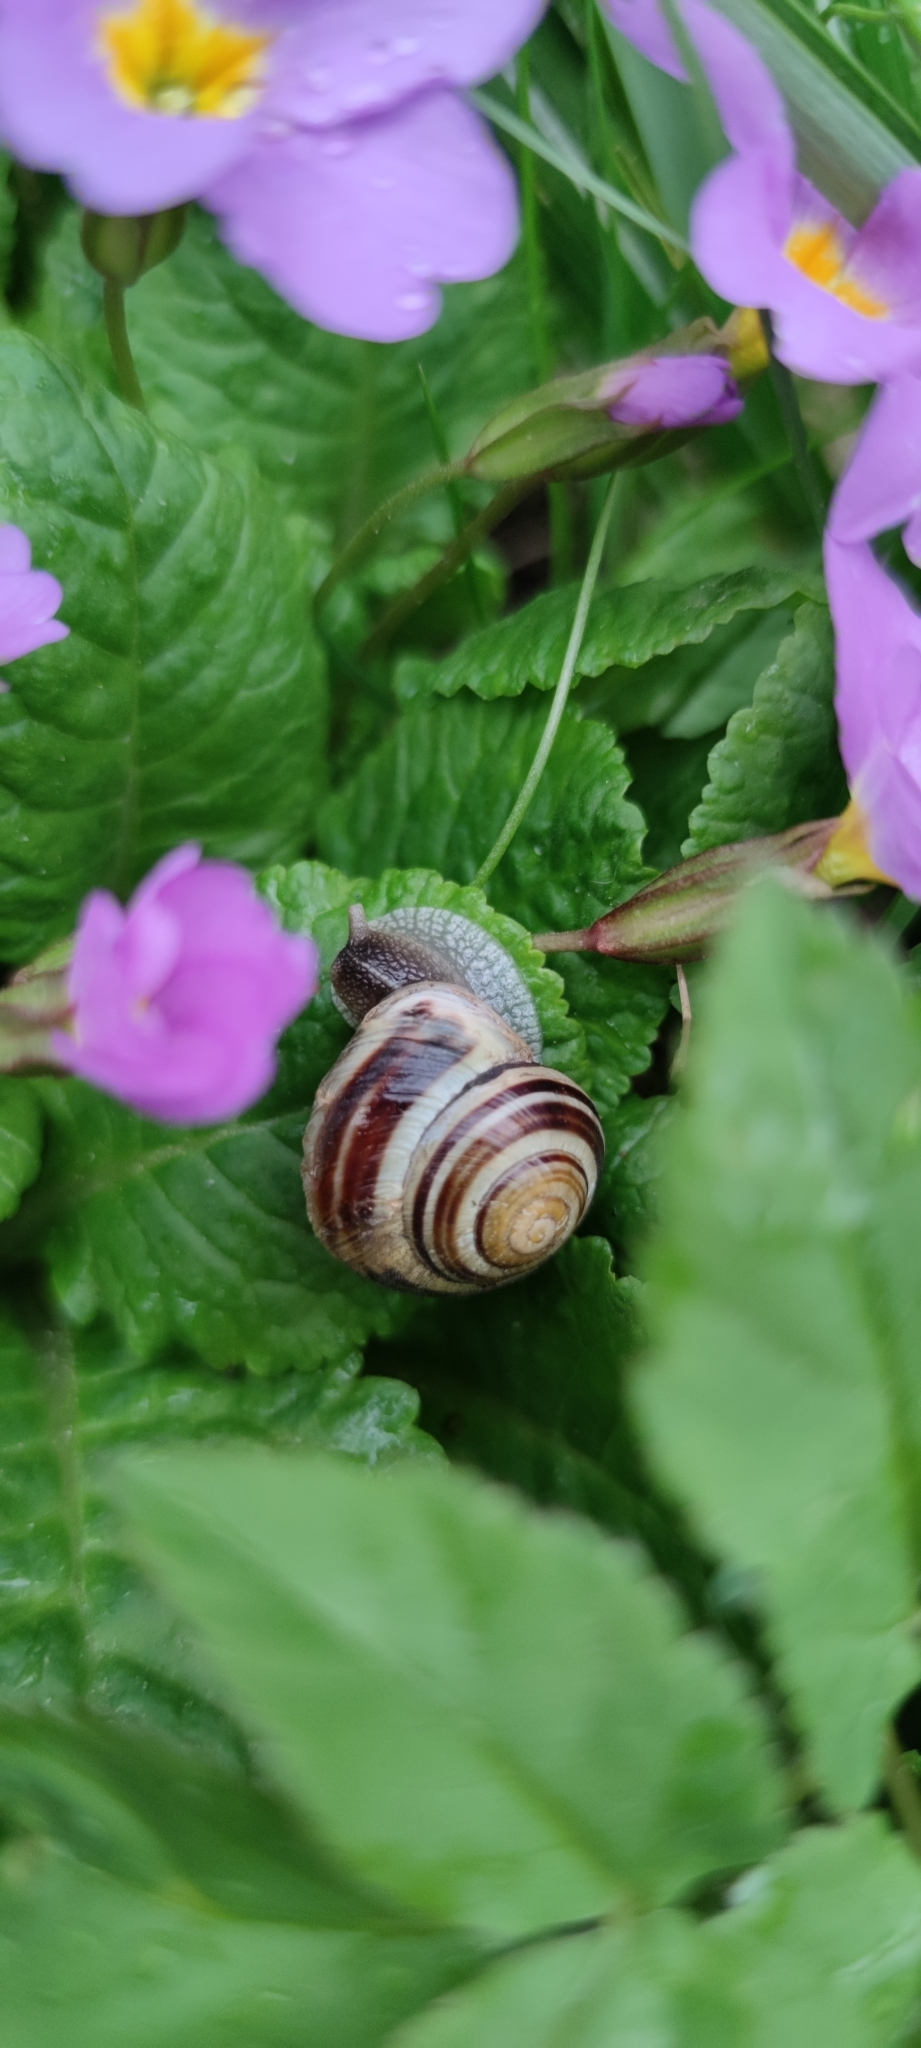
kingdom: Animalia
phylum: Mollusca
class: Gastropoda
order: Stylommatophora
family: Helicidae
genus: Cepaea
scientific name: Cepaea hortensis
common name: White-lip gardensnail
